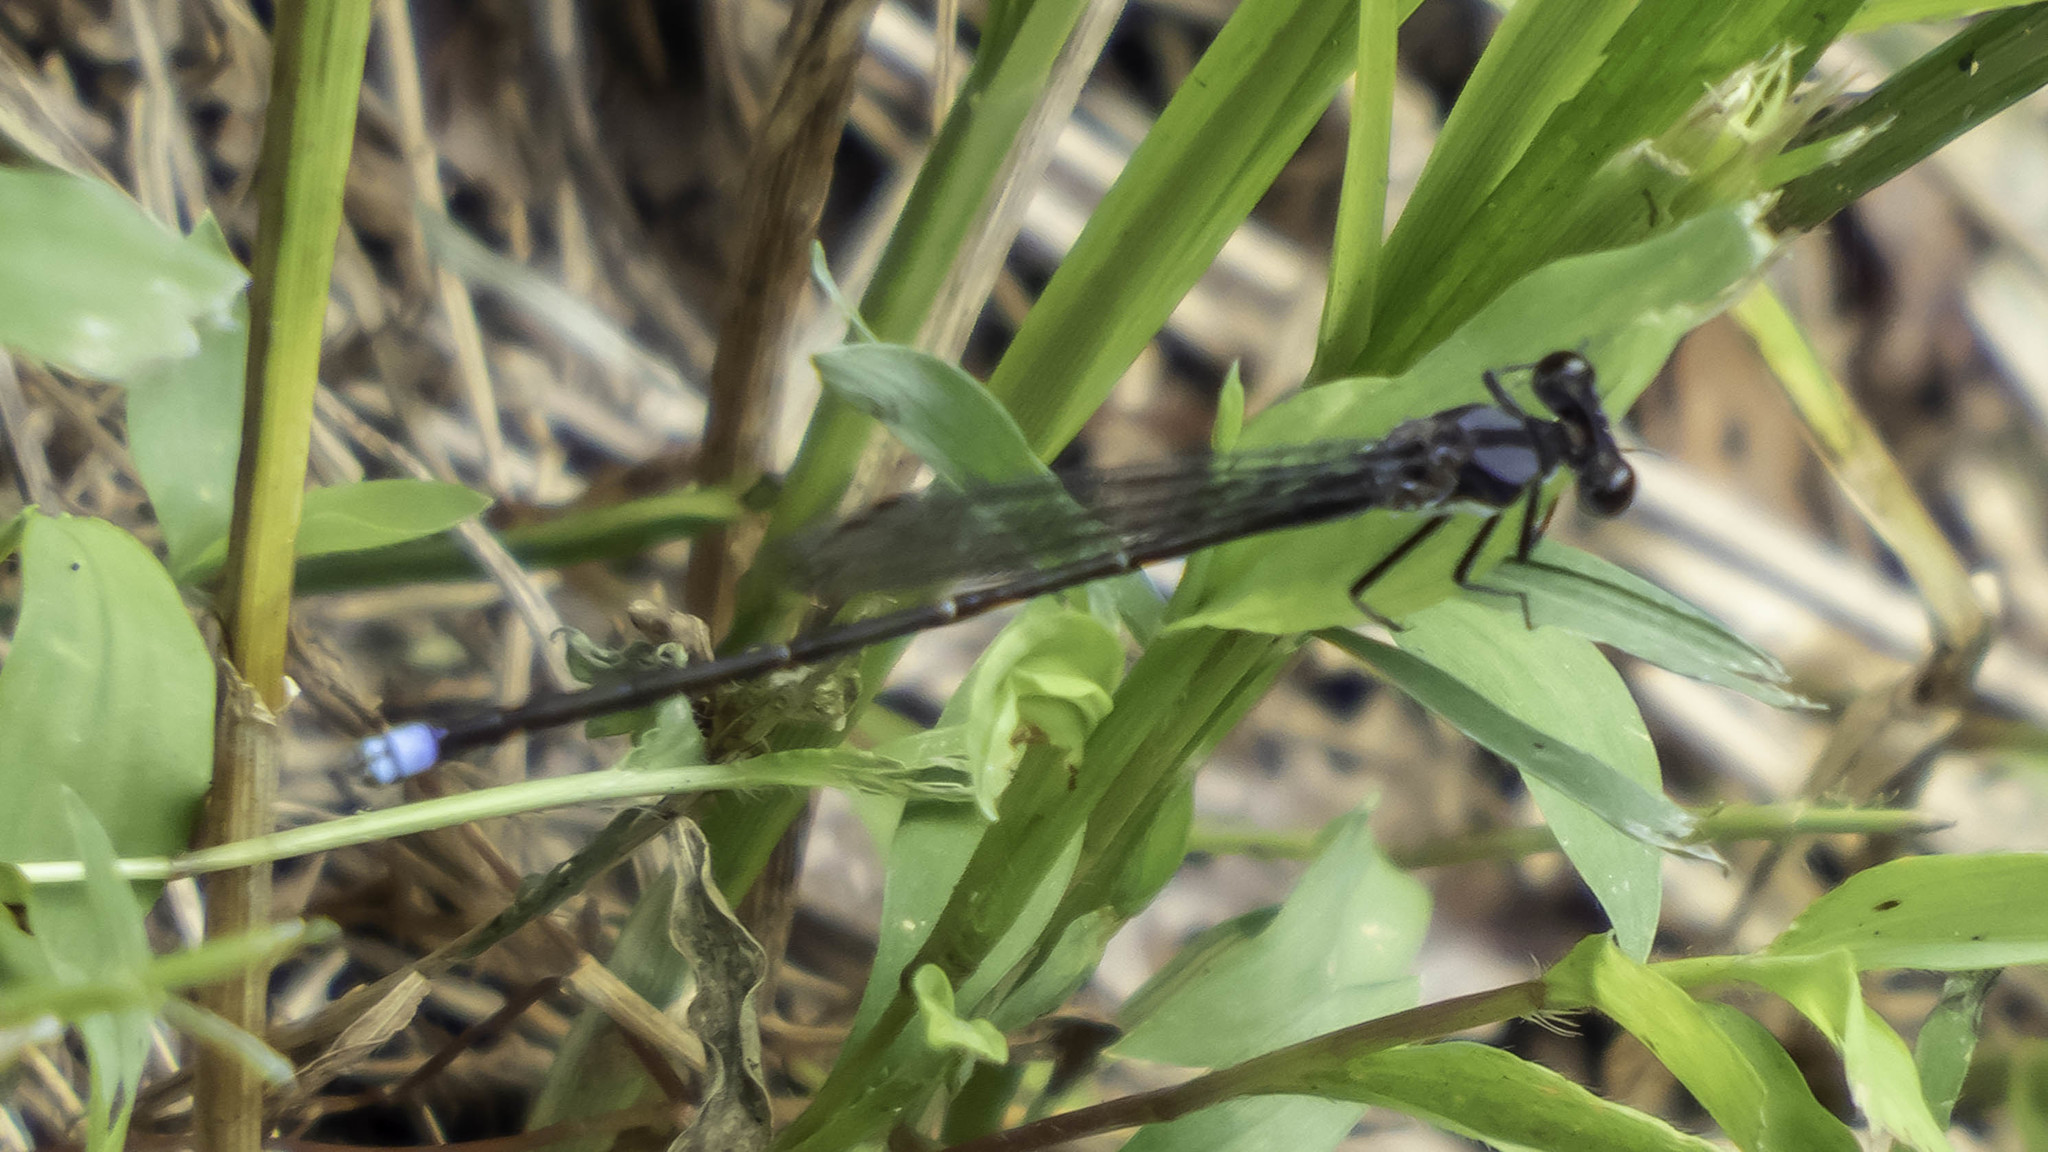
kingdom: Animalia
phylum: Arthropoda
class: Insecta
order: Odonata
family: Coenagrionidae
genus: Argia
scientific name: Argia tibialis
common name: Blue-tipped dancer
